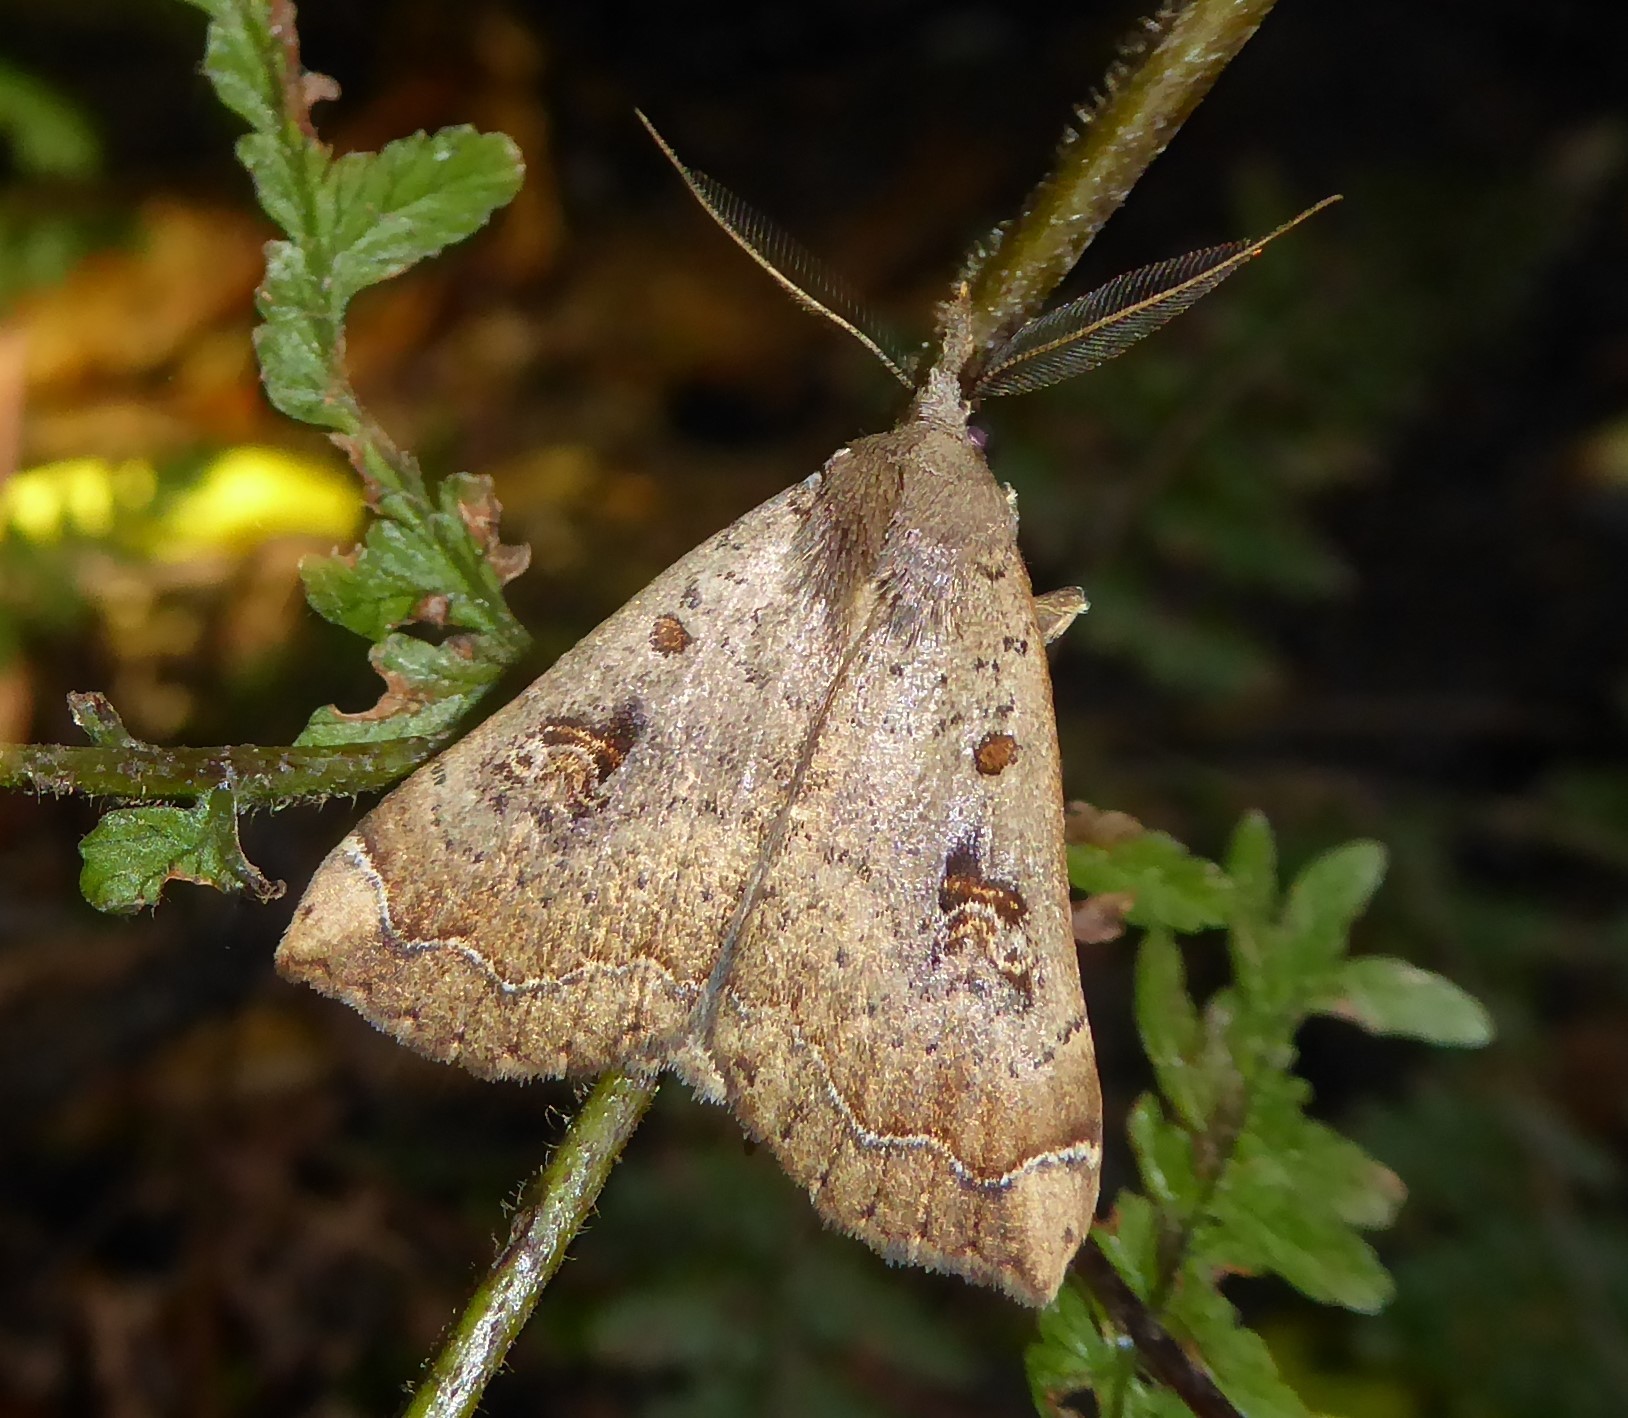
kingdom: Animalia
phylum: Arthropoda
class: Insecta
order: Lepidoptera
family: Erebidae
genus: Rhapsa
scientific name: Rhapsa scotosialis
